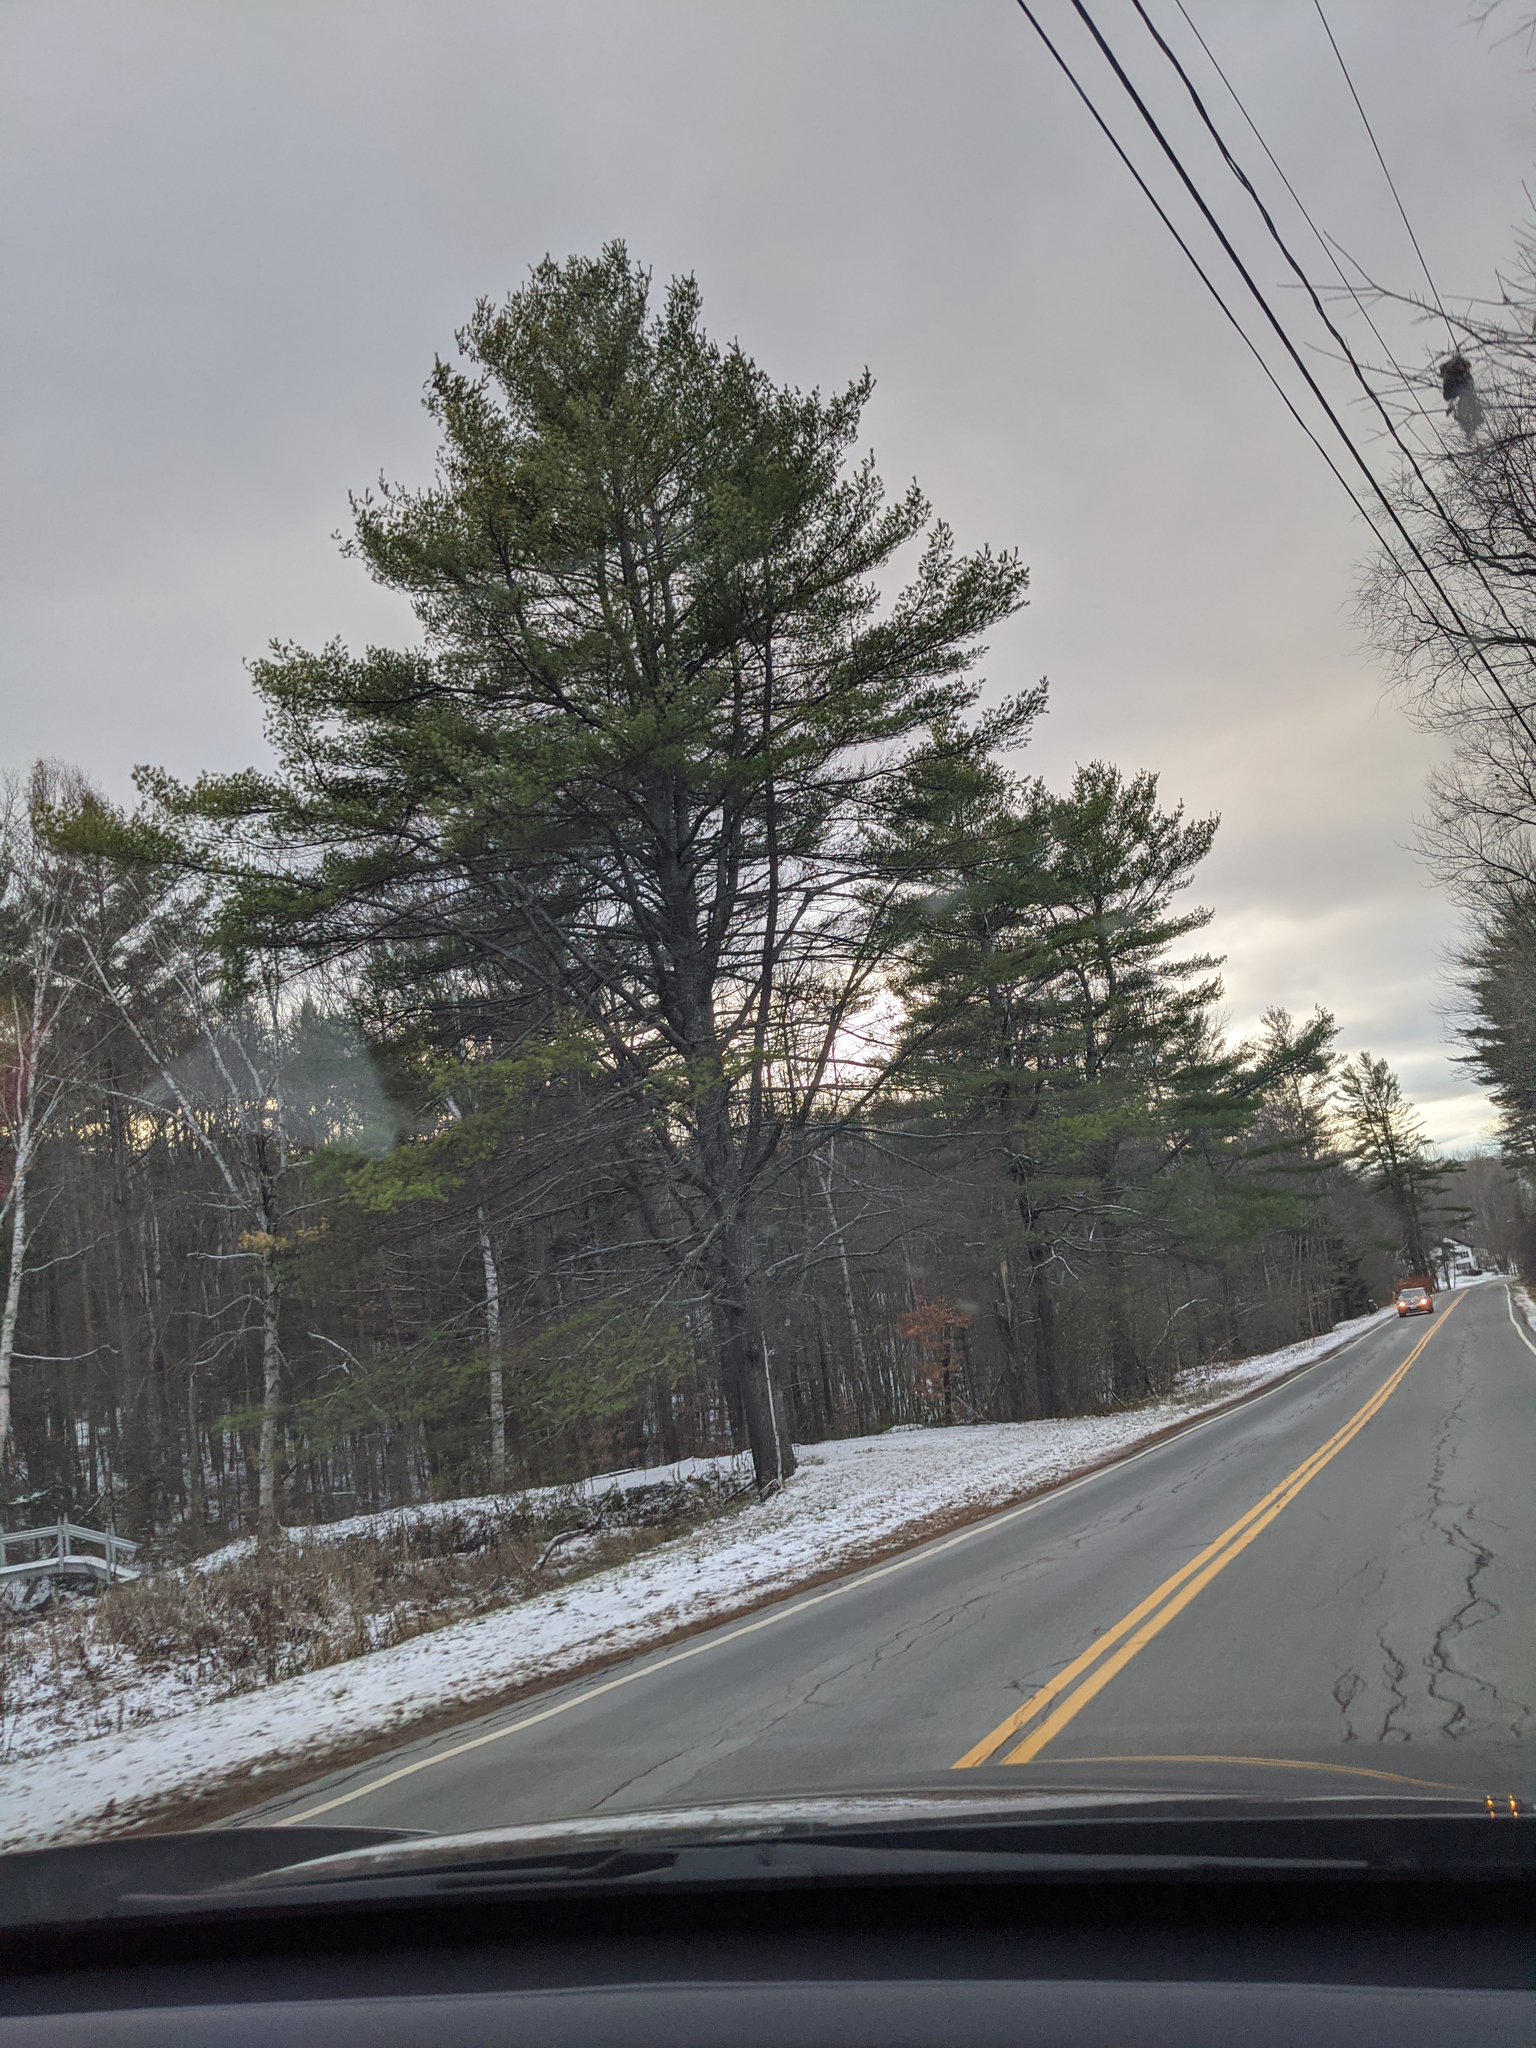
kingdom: Plantae
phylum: Tracheophyta
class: Pinopsida
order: Pinales
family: Pinaceae
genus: Pinus
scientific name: Pinus strobus
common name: Weymouth pine
